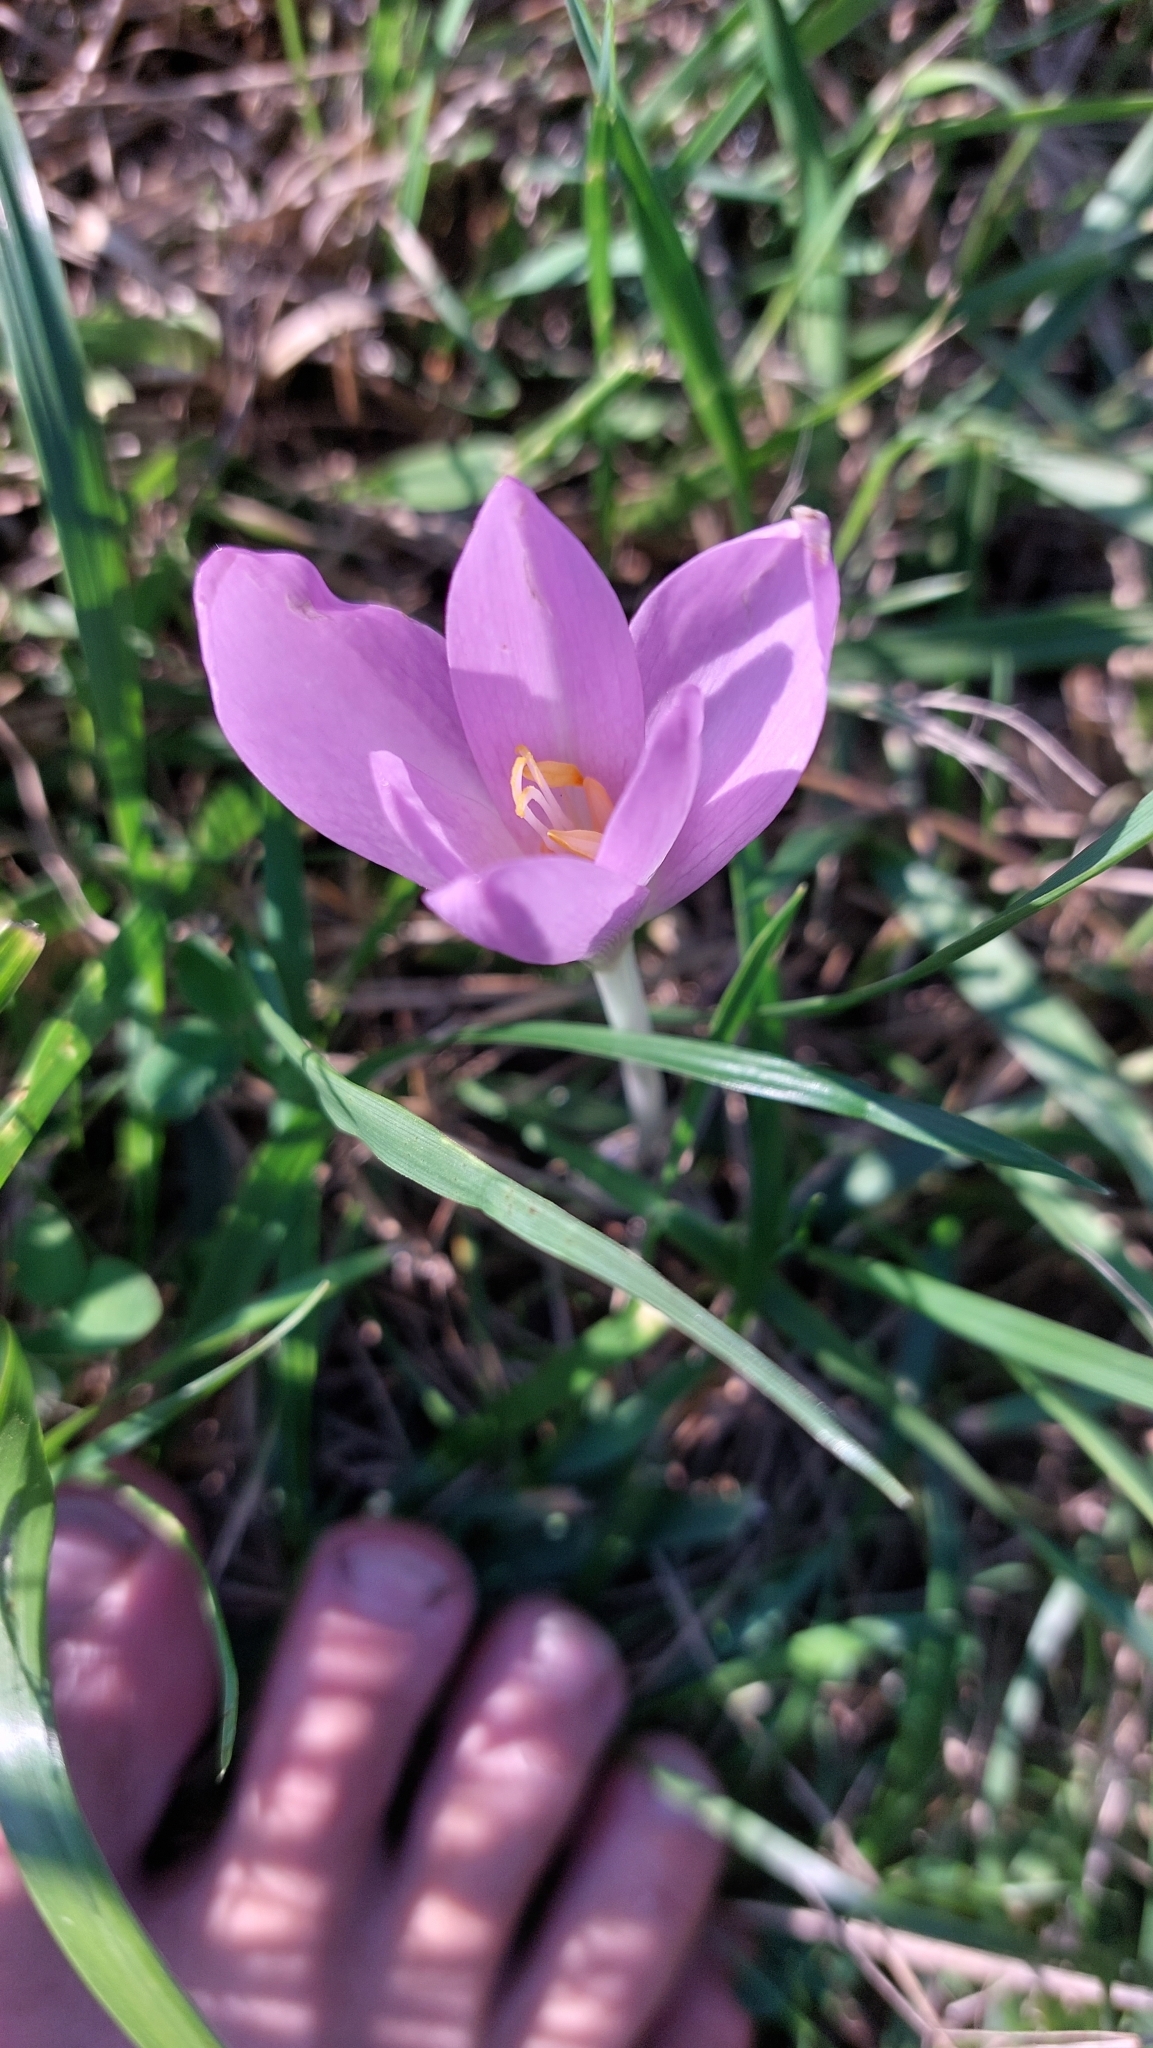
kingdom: Plantae
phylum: Tracheophyta
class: Liliopsida
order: Liliales
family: Colchicaceae
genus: Colchicum
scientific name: Colchicum autumnale
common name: Autumn crocus
